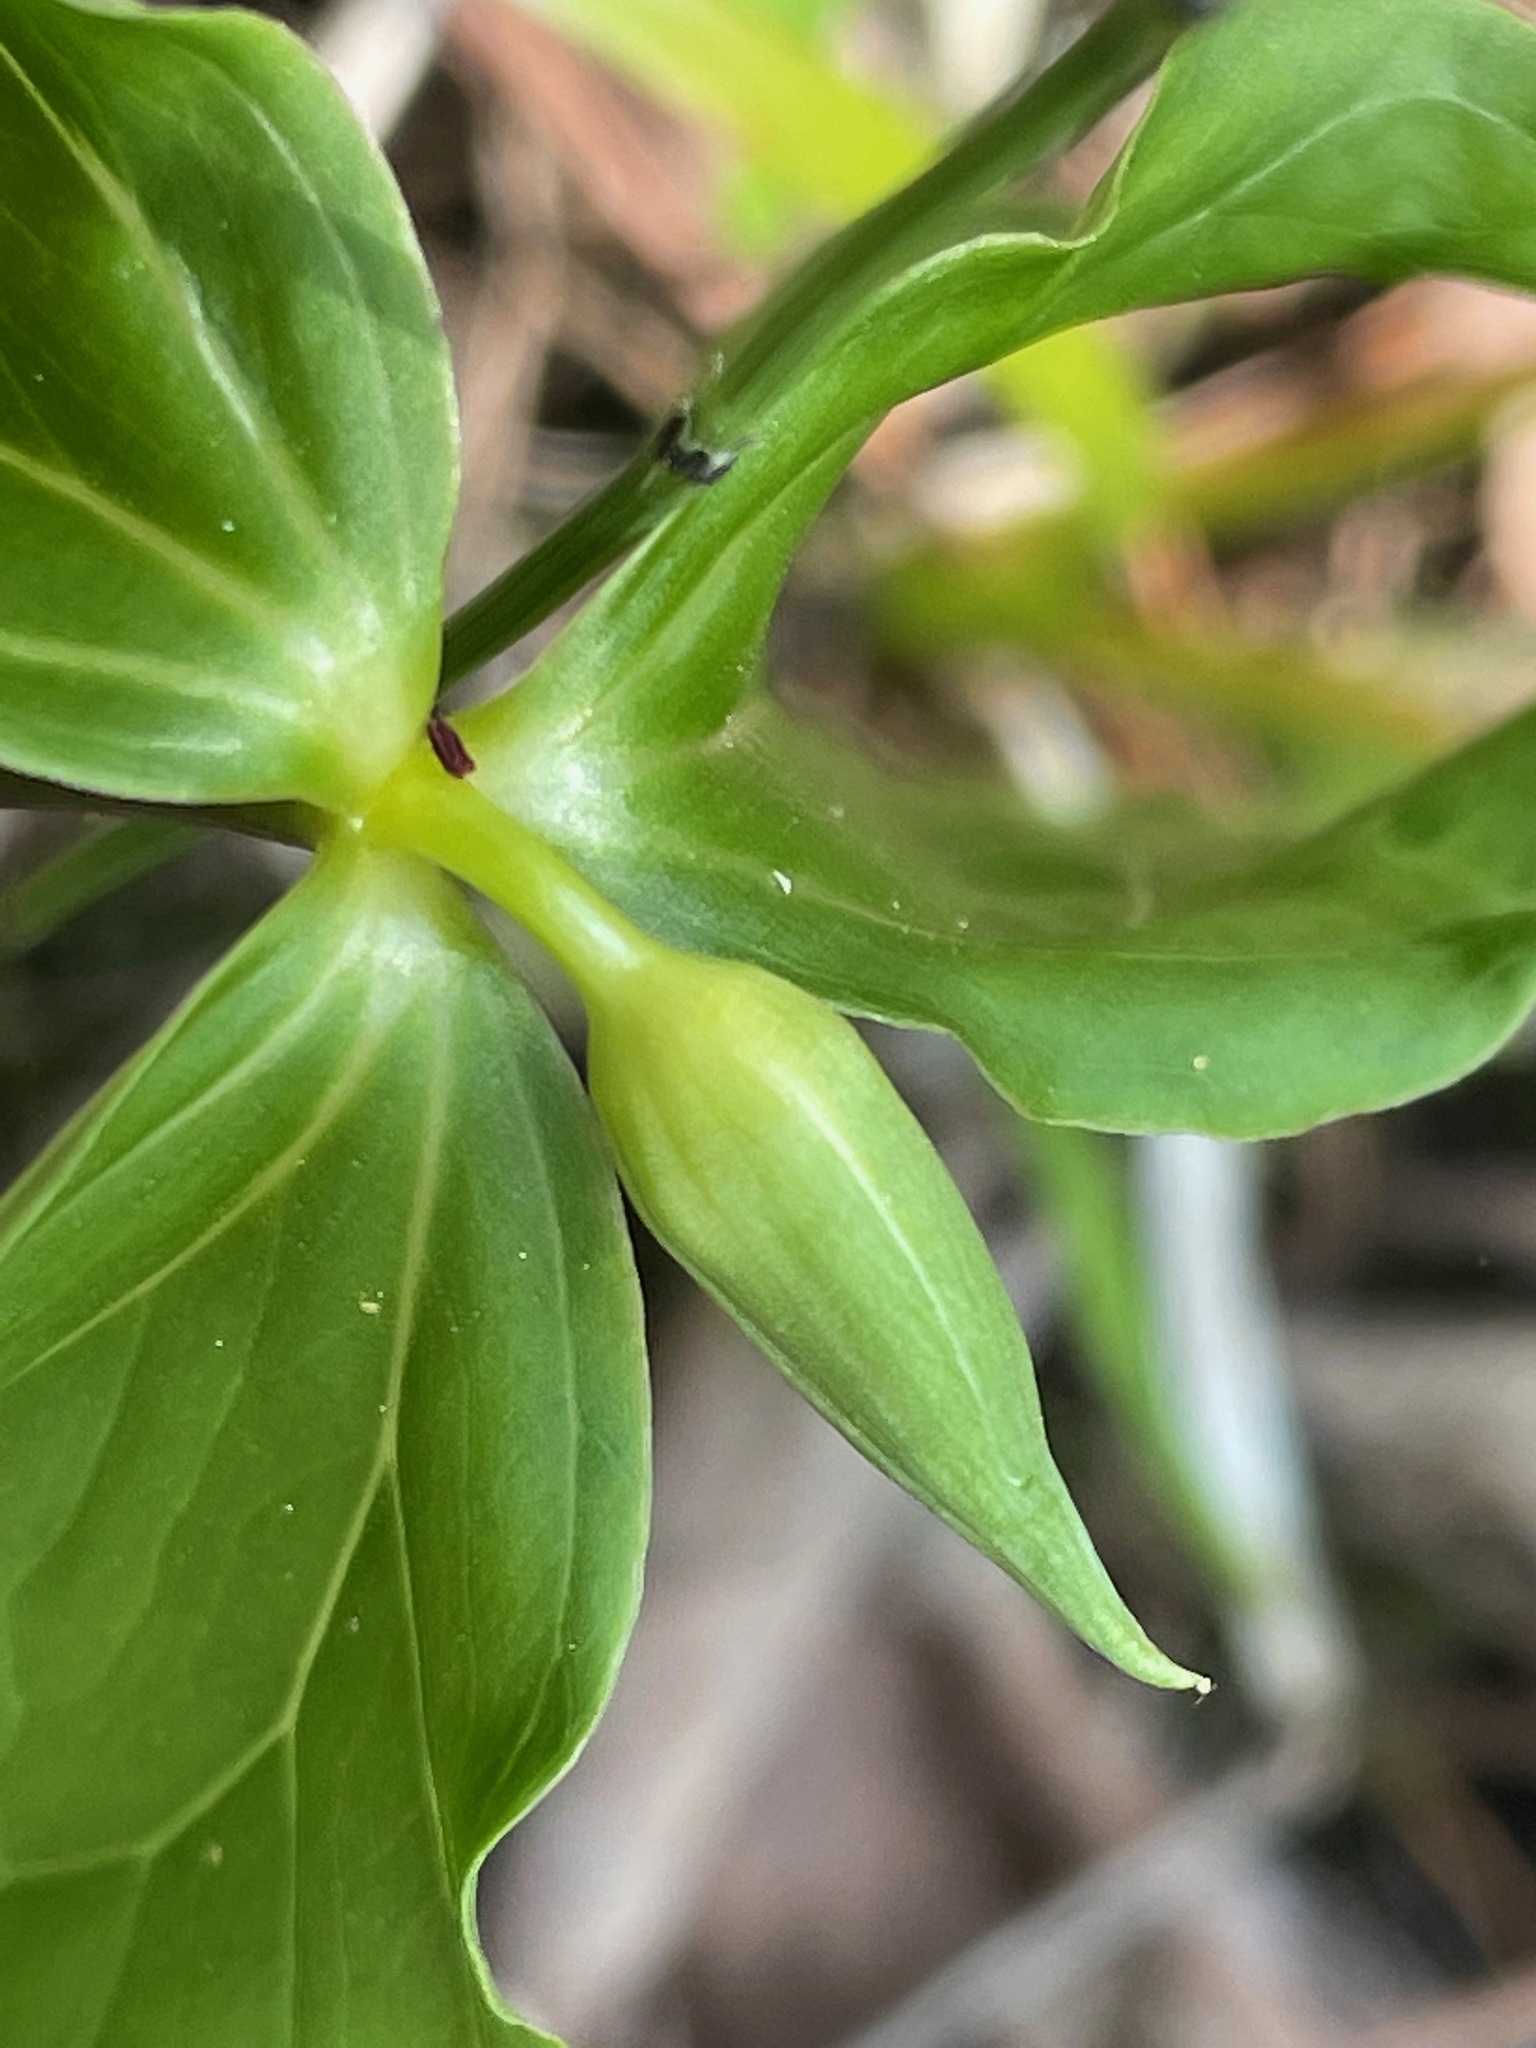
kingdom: Plantae
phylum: Tracheophyta
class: Liliopsida
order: Liliales
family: Melanthiaceae
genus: Trillium
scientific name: Trillium cernuum
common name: Nodding trillium
